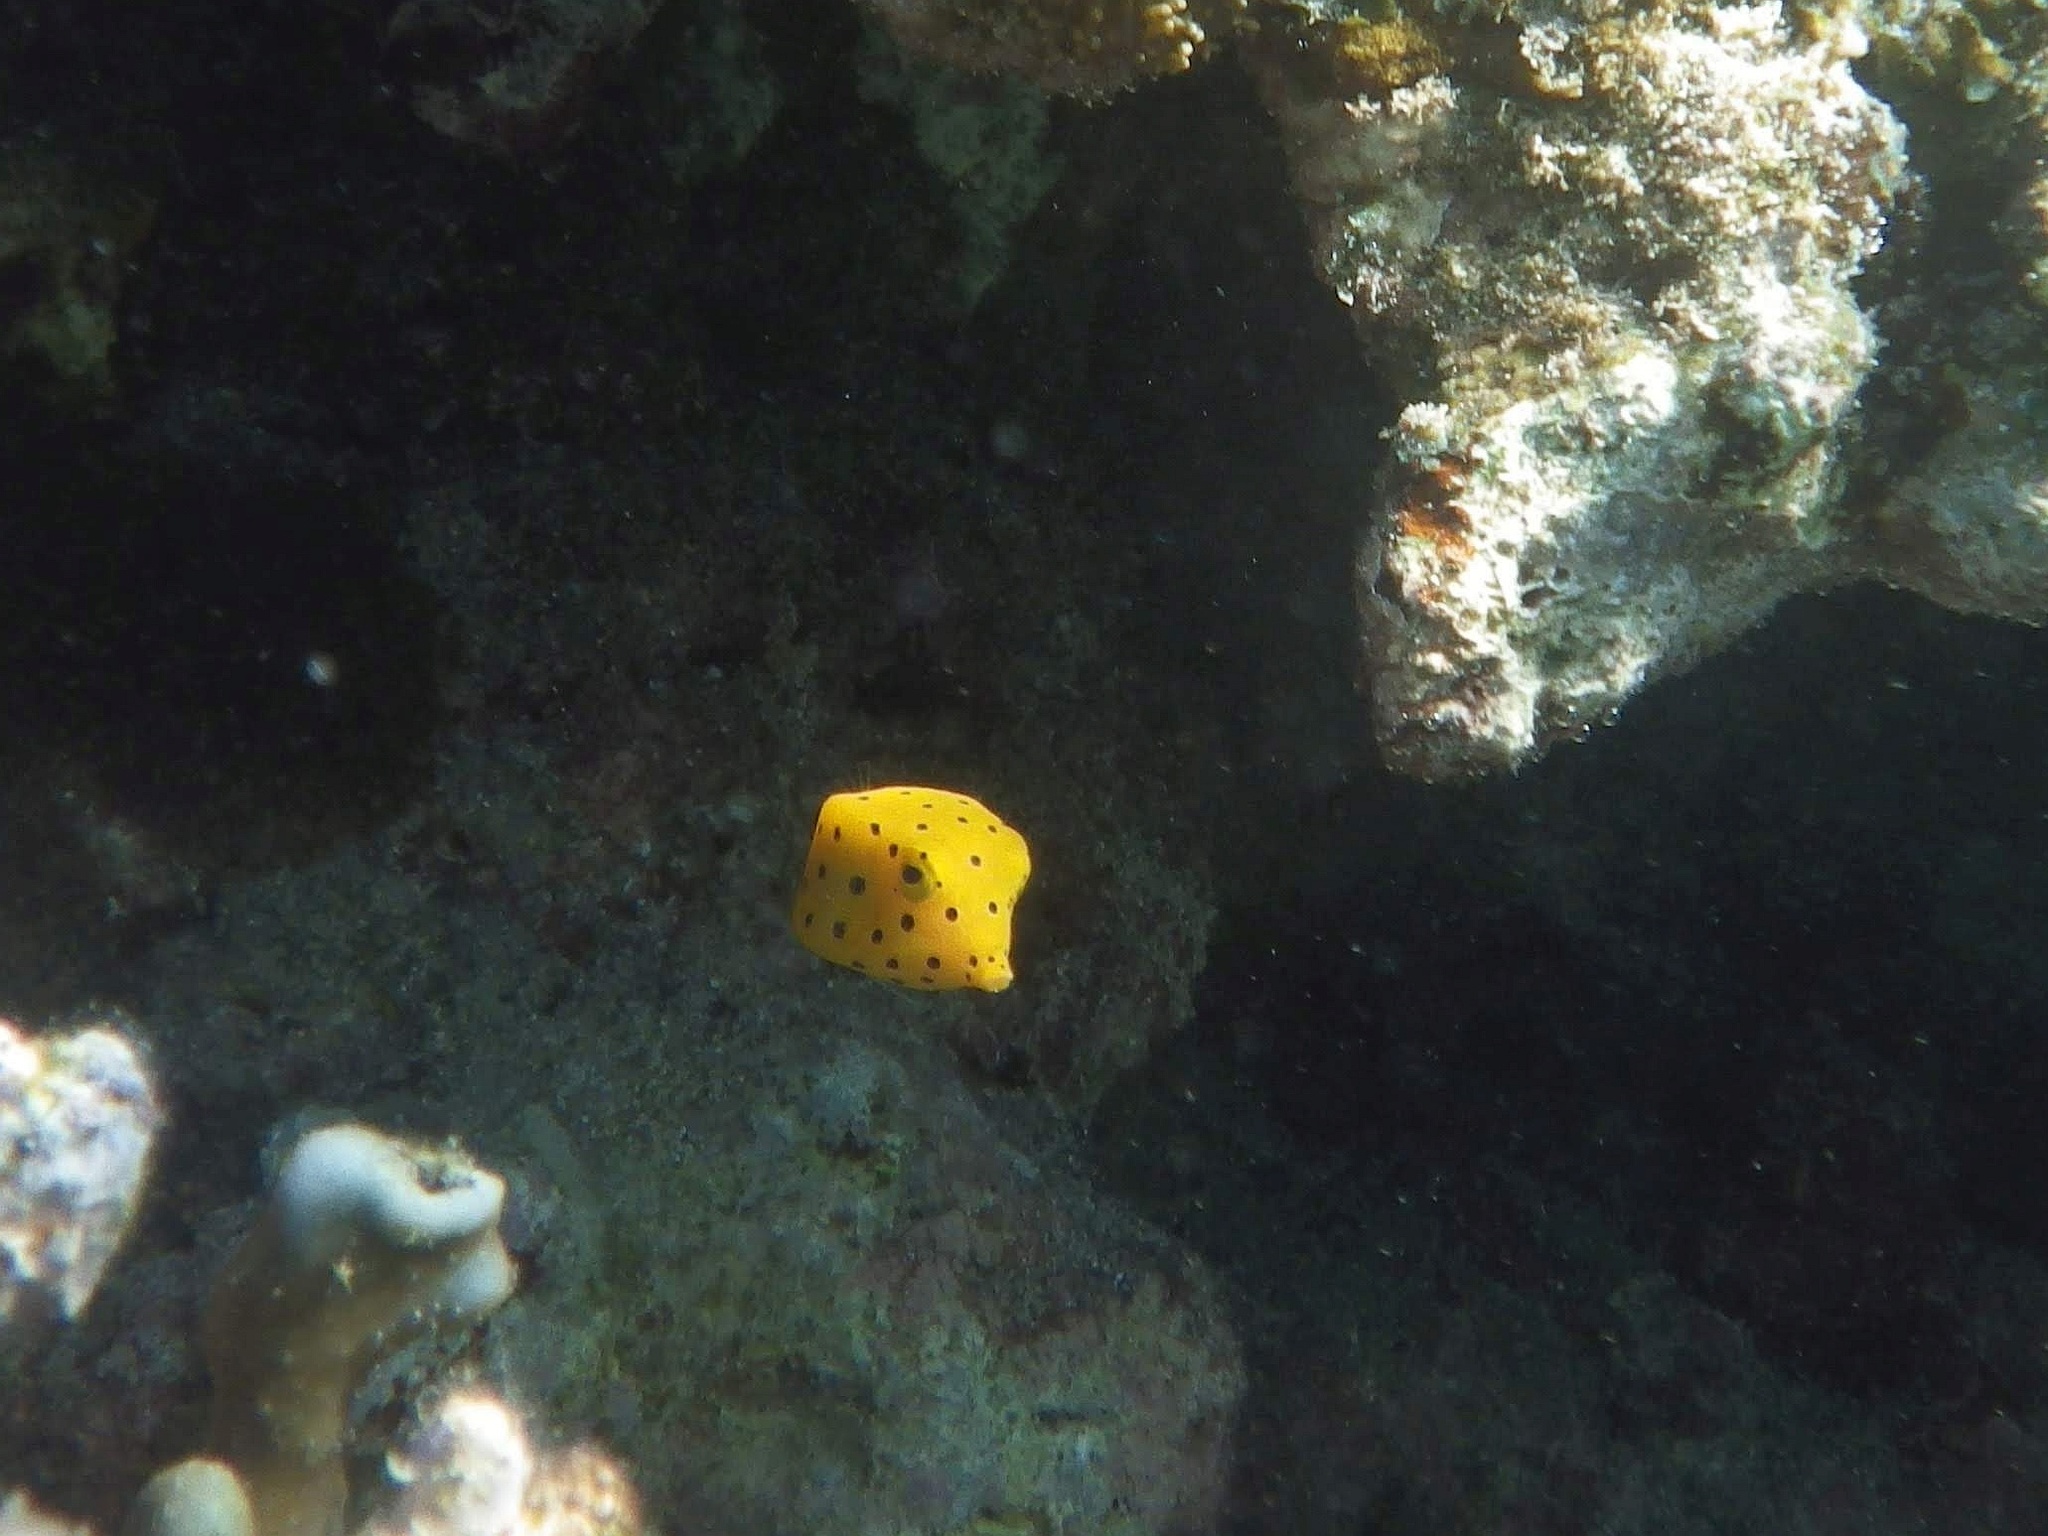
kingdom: Animalia
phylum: Chordata
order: Tetraodontiformes
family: Ostraciidae
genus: Ostracion
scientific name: Ostracion cubicus
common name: Cube trunkfish
